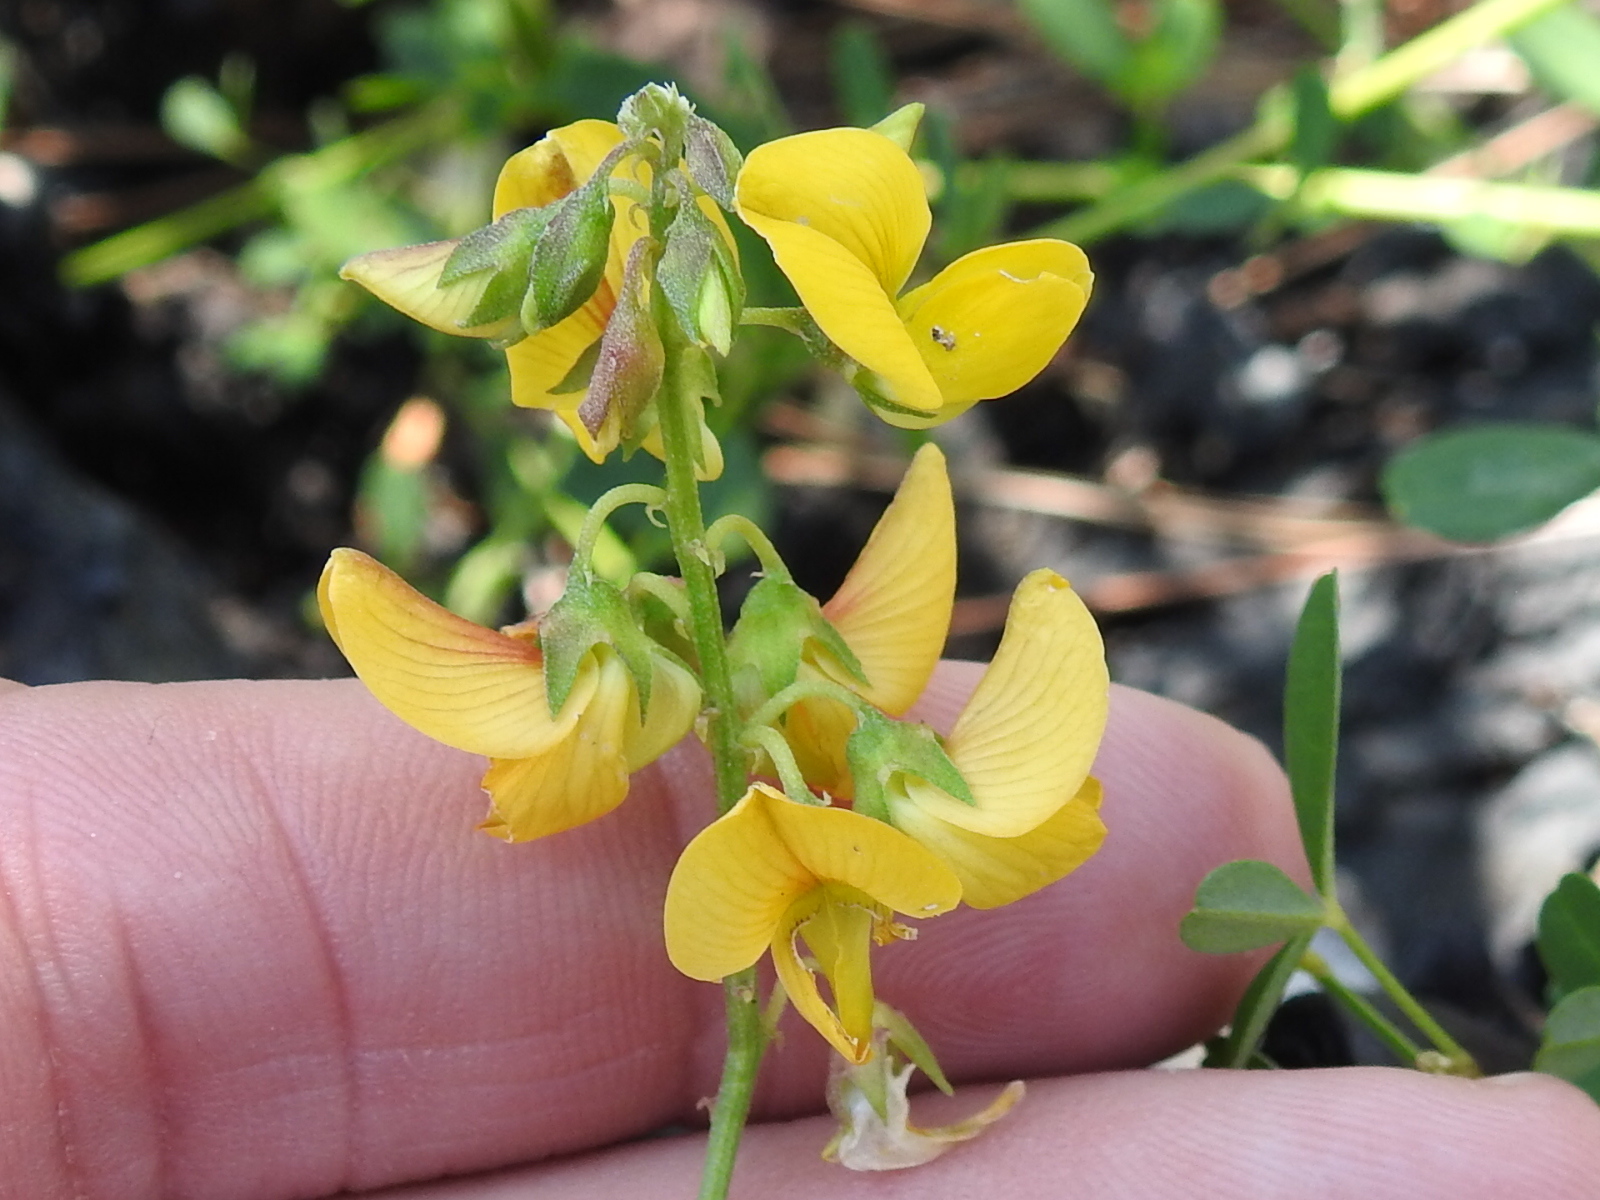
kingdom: Plantae
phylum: Tracheophyta
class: Magnoliopsida
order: Fabales
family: Fabaceae
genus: Crotalaria
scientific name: Crotalaria pumila
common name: Low rattlebox
